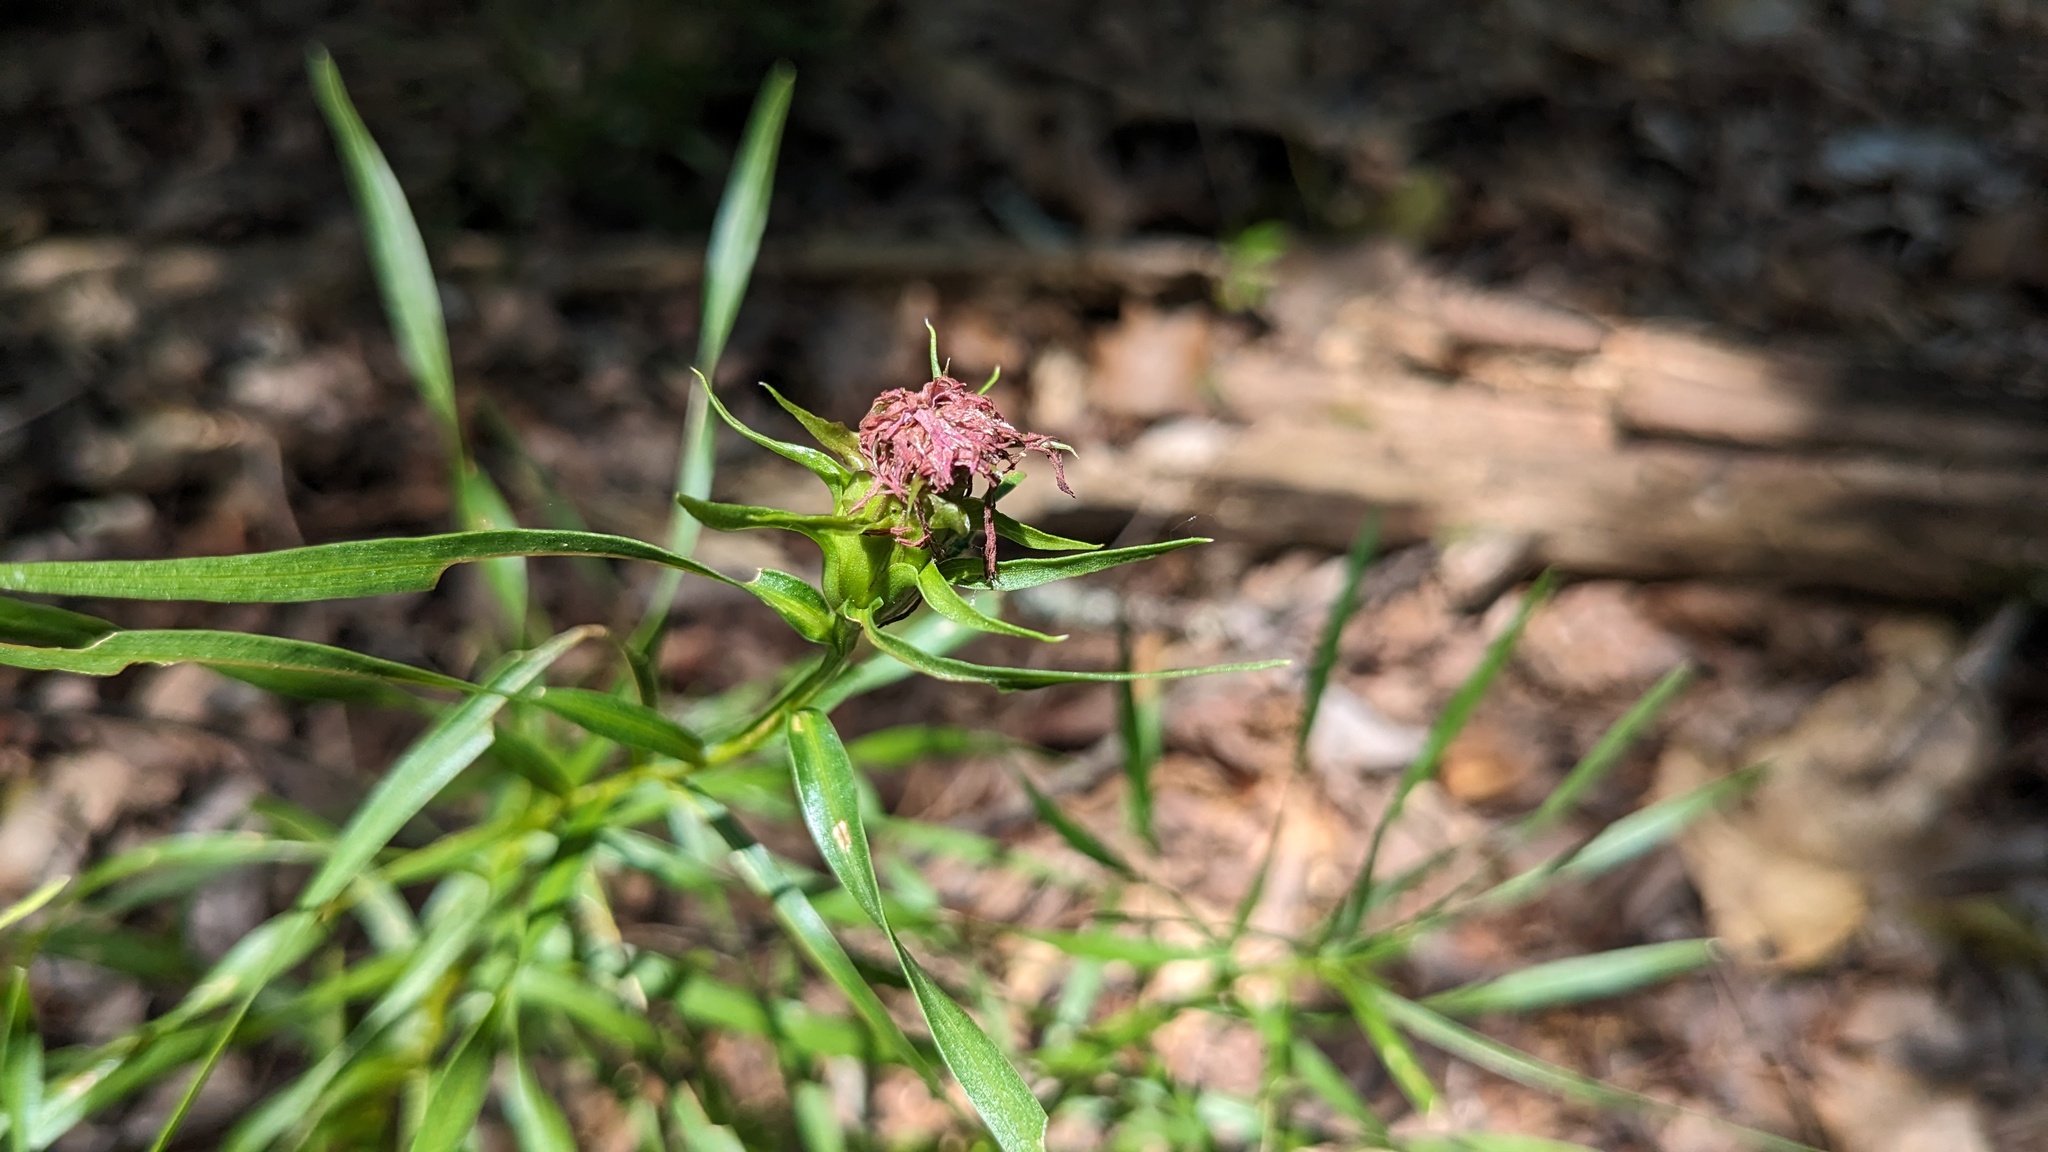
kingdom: Plantae
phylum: Tracheophyta
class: Magnoliopsida
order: Asterales
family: Asteraceae
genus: Liatris
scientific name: Liatris compacta
